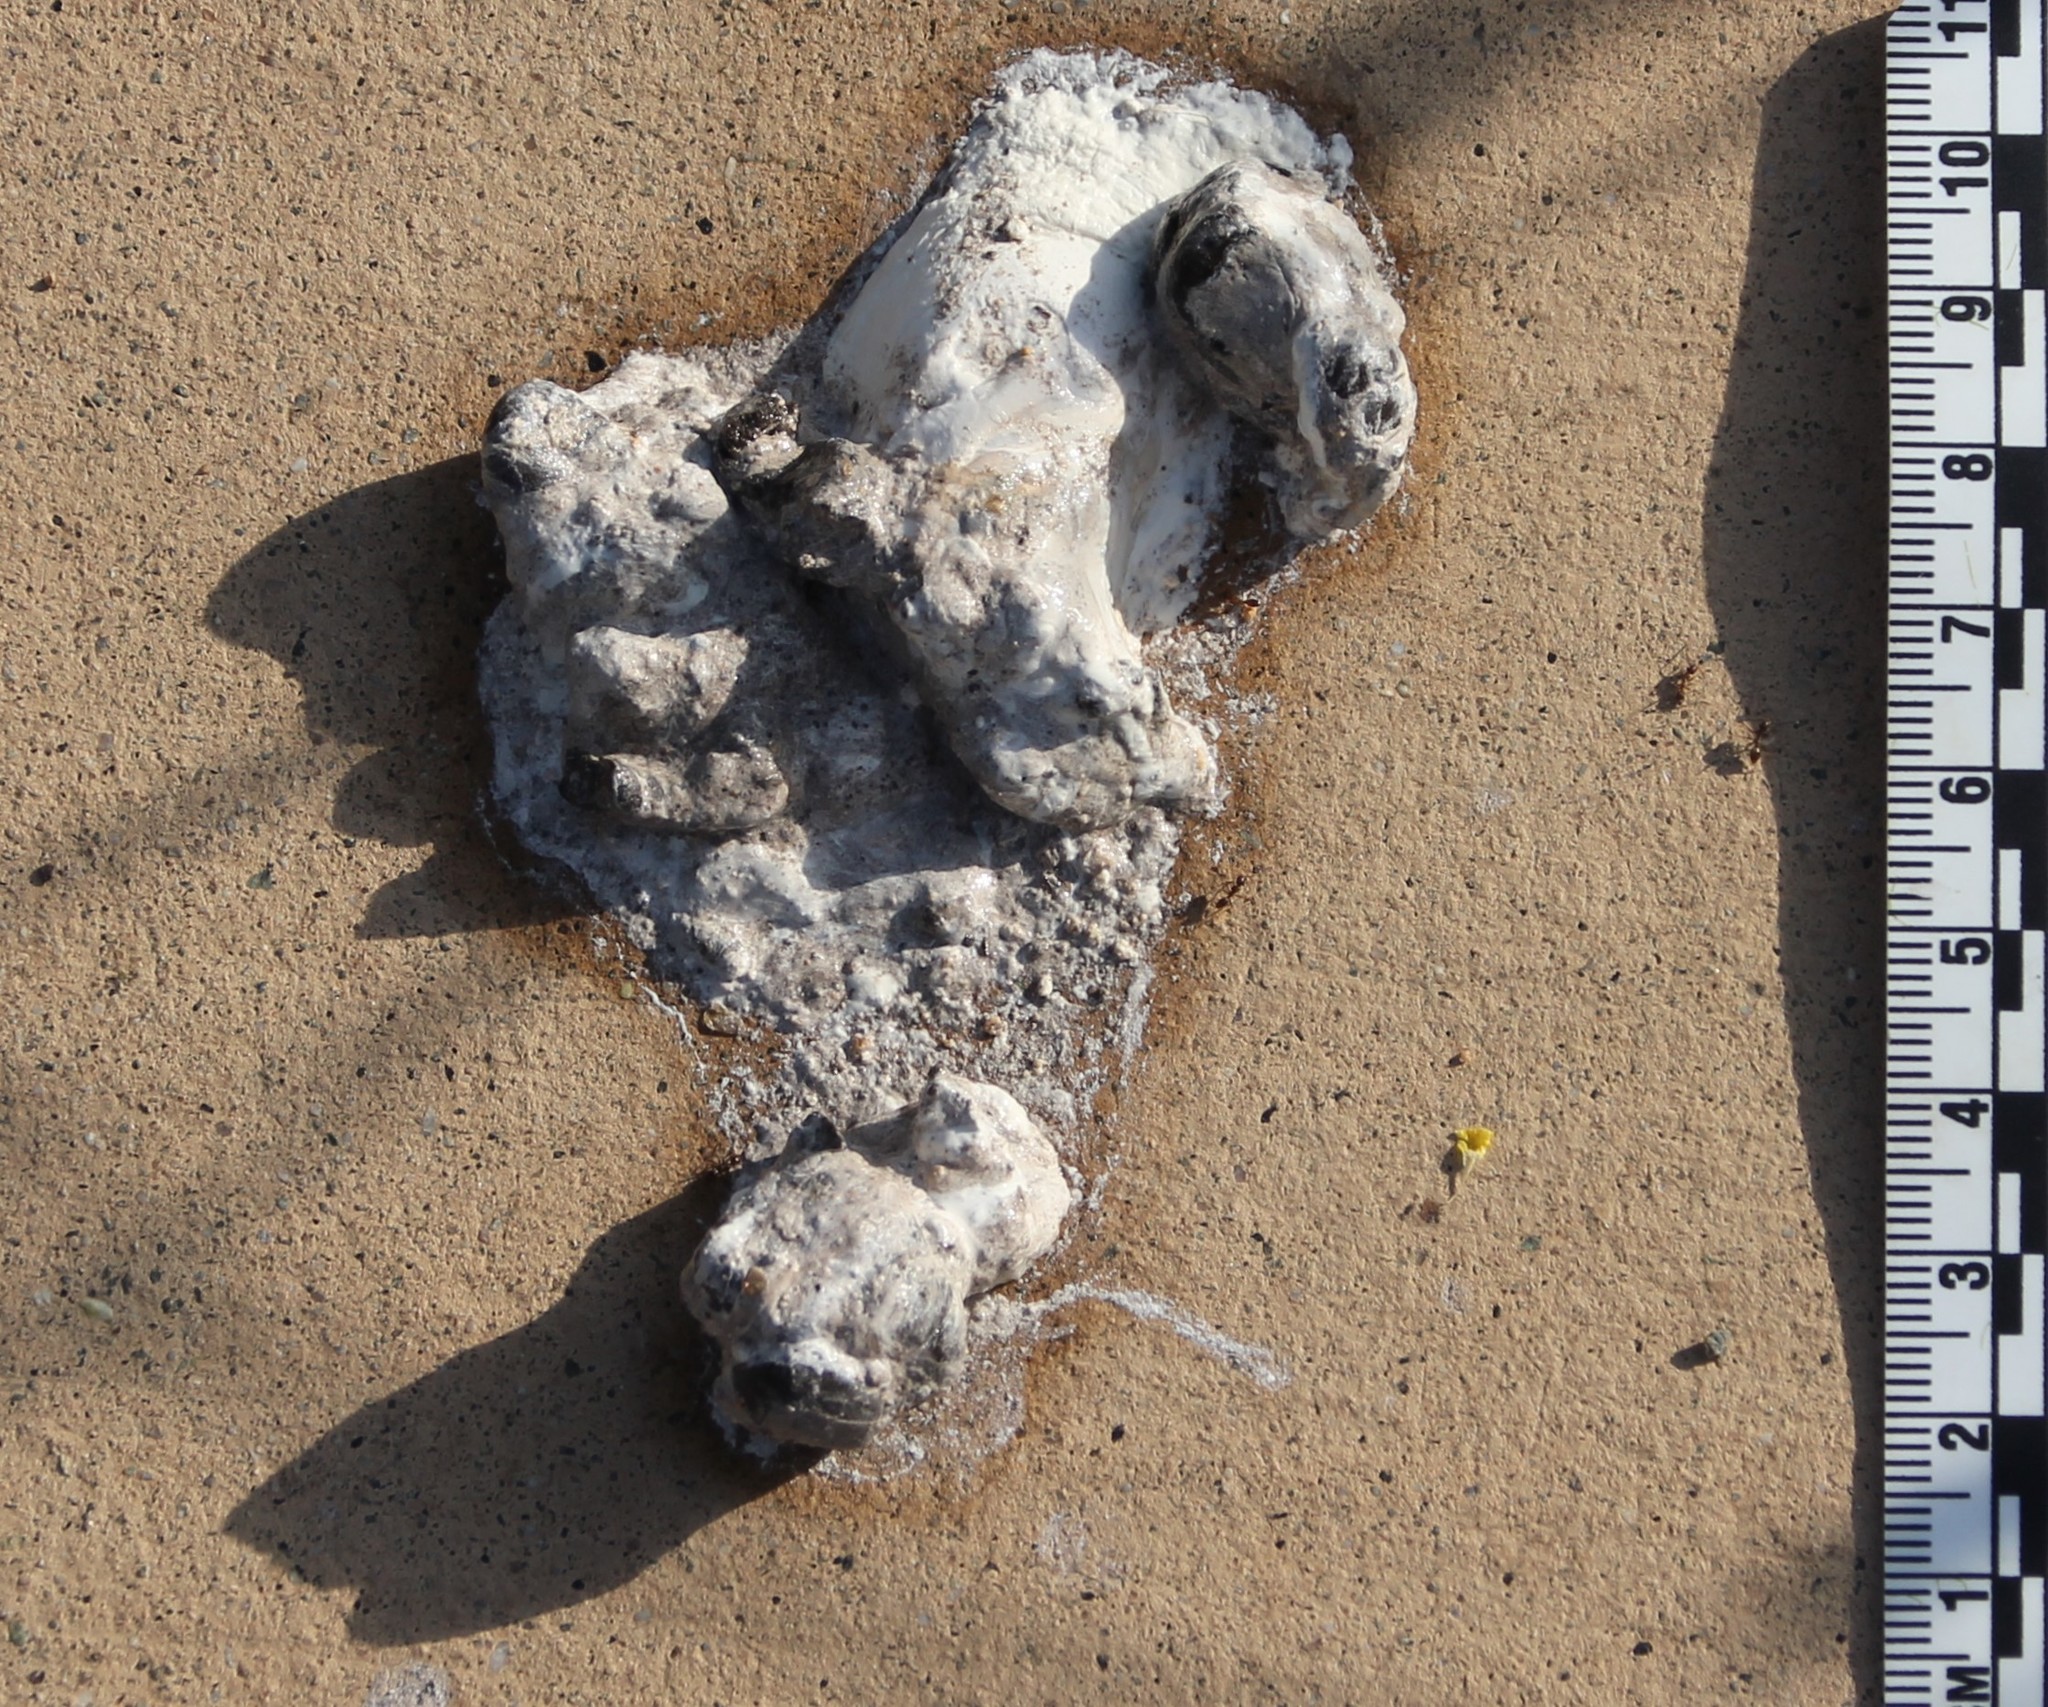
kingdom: Animalia
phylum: Chordata
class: Aves
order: Cuculiformes
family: Cuculidae
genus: Geococcyx
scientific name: Geococcyx californianus
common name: Greater roadrunner
